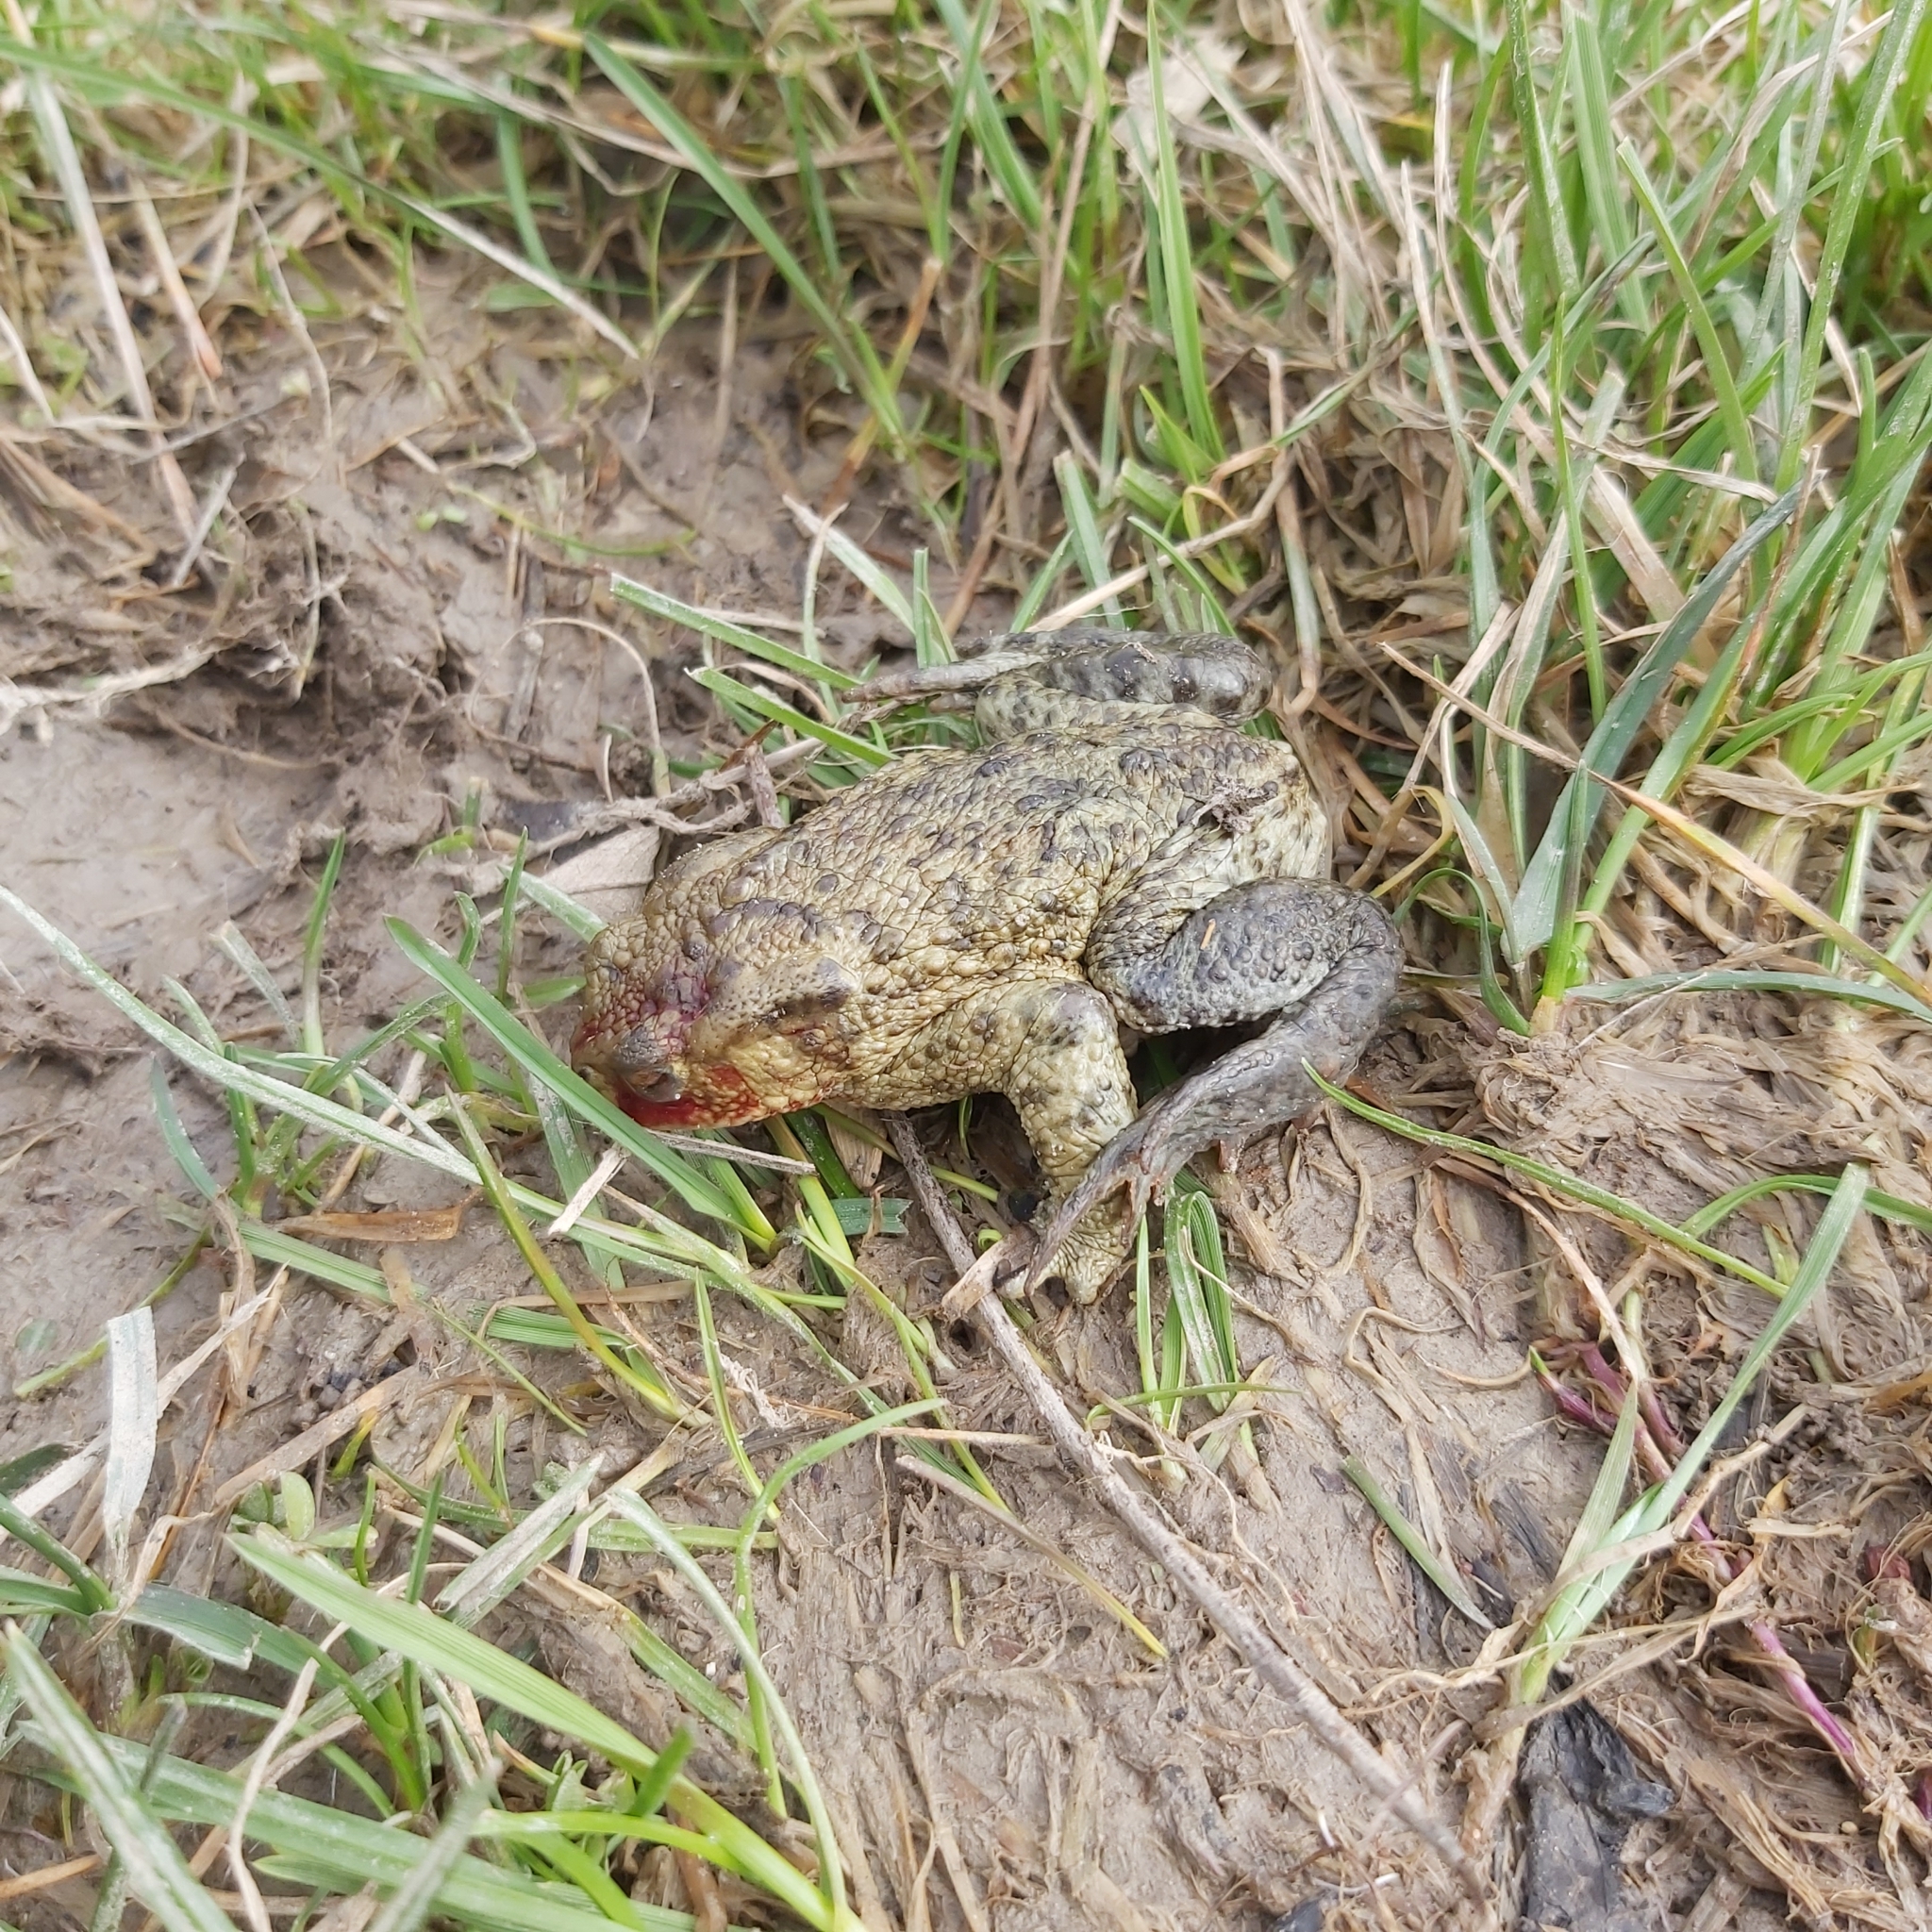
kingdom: Animalia
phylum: Chordata
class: Amphibia
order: Anura
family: Bufonidae
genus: Bufo
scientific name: Bufo bufo
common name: Common toad
